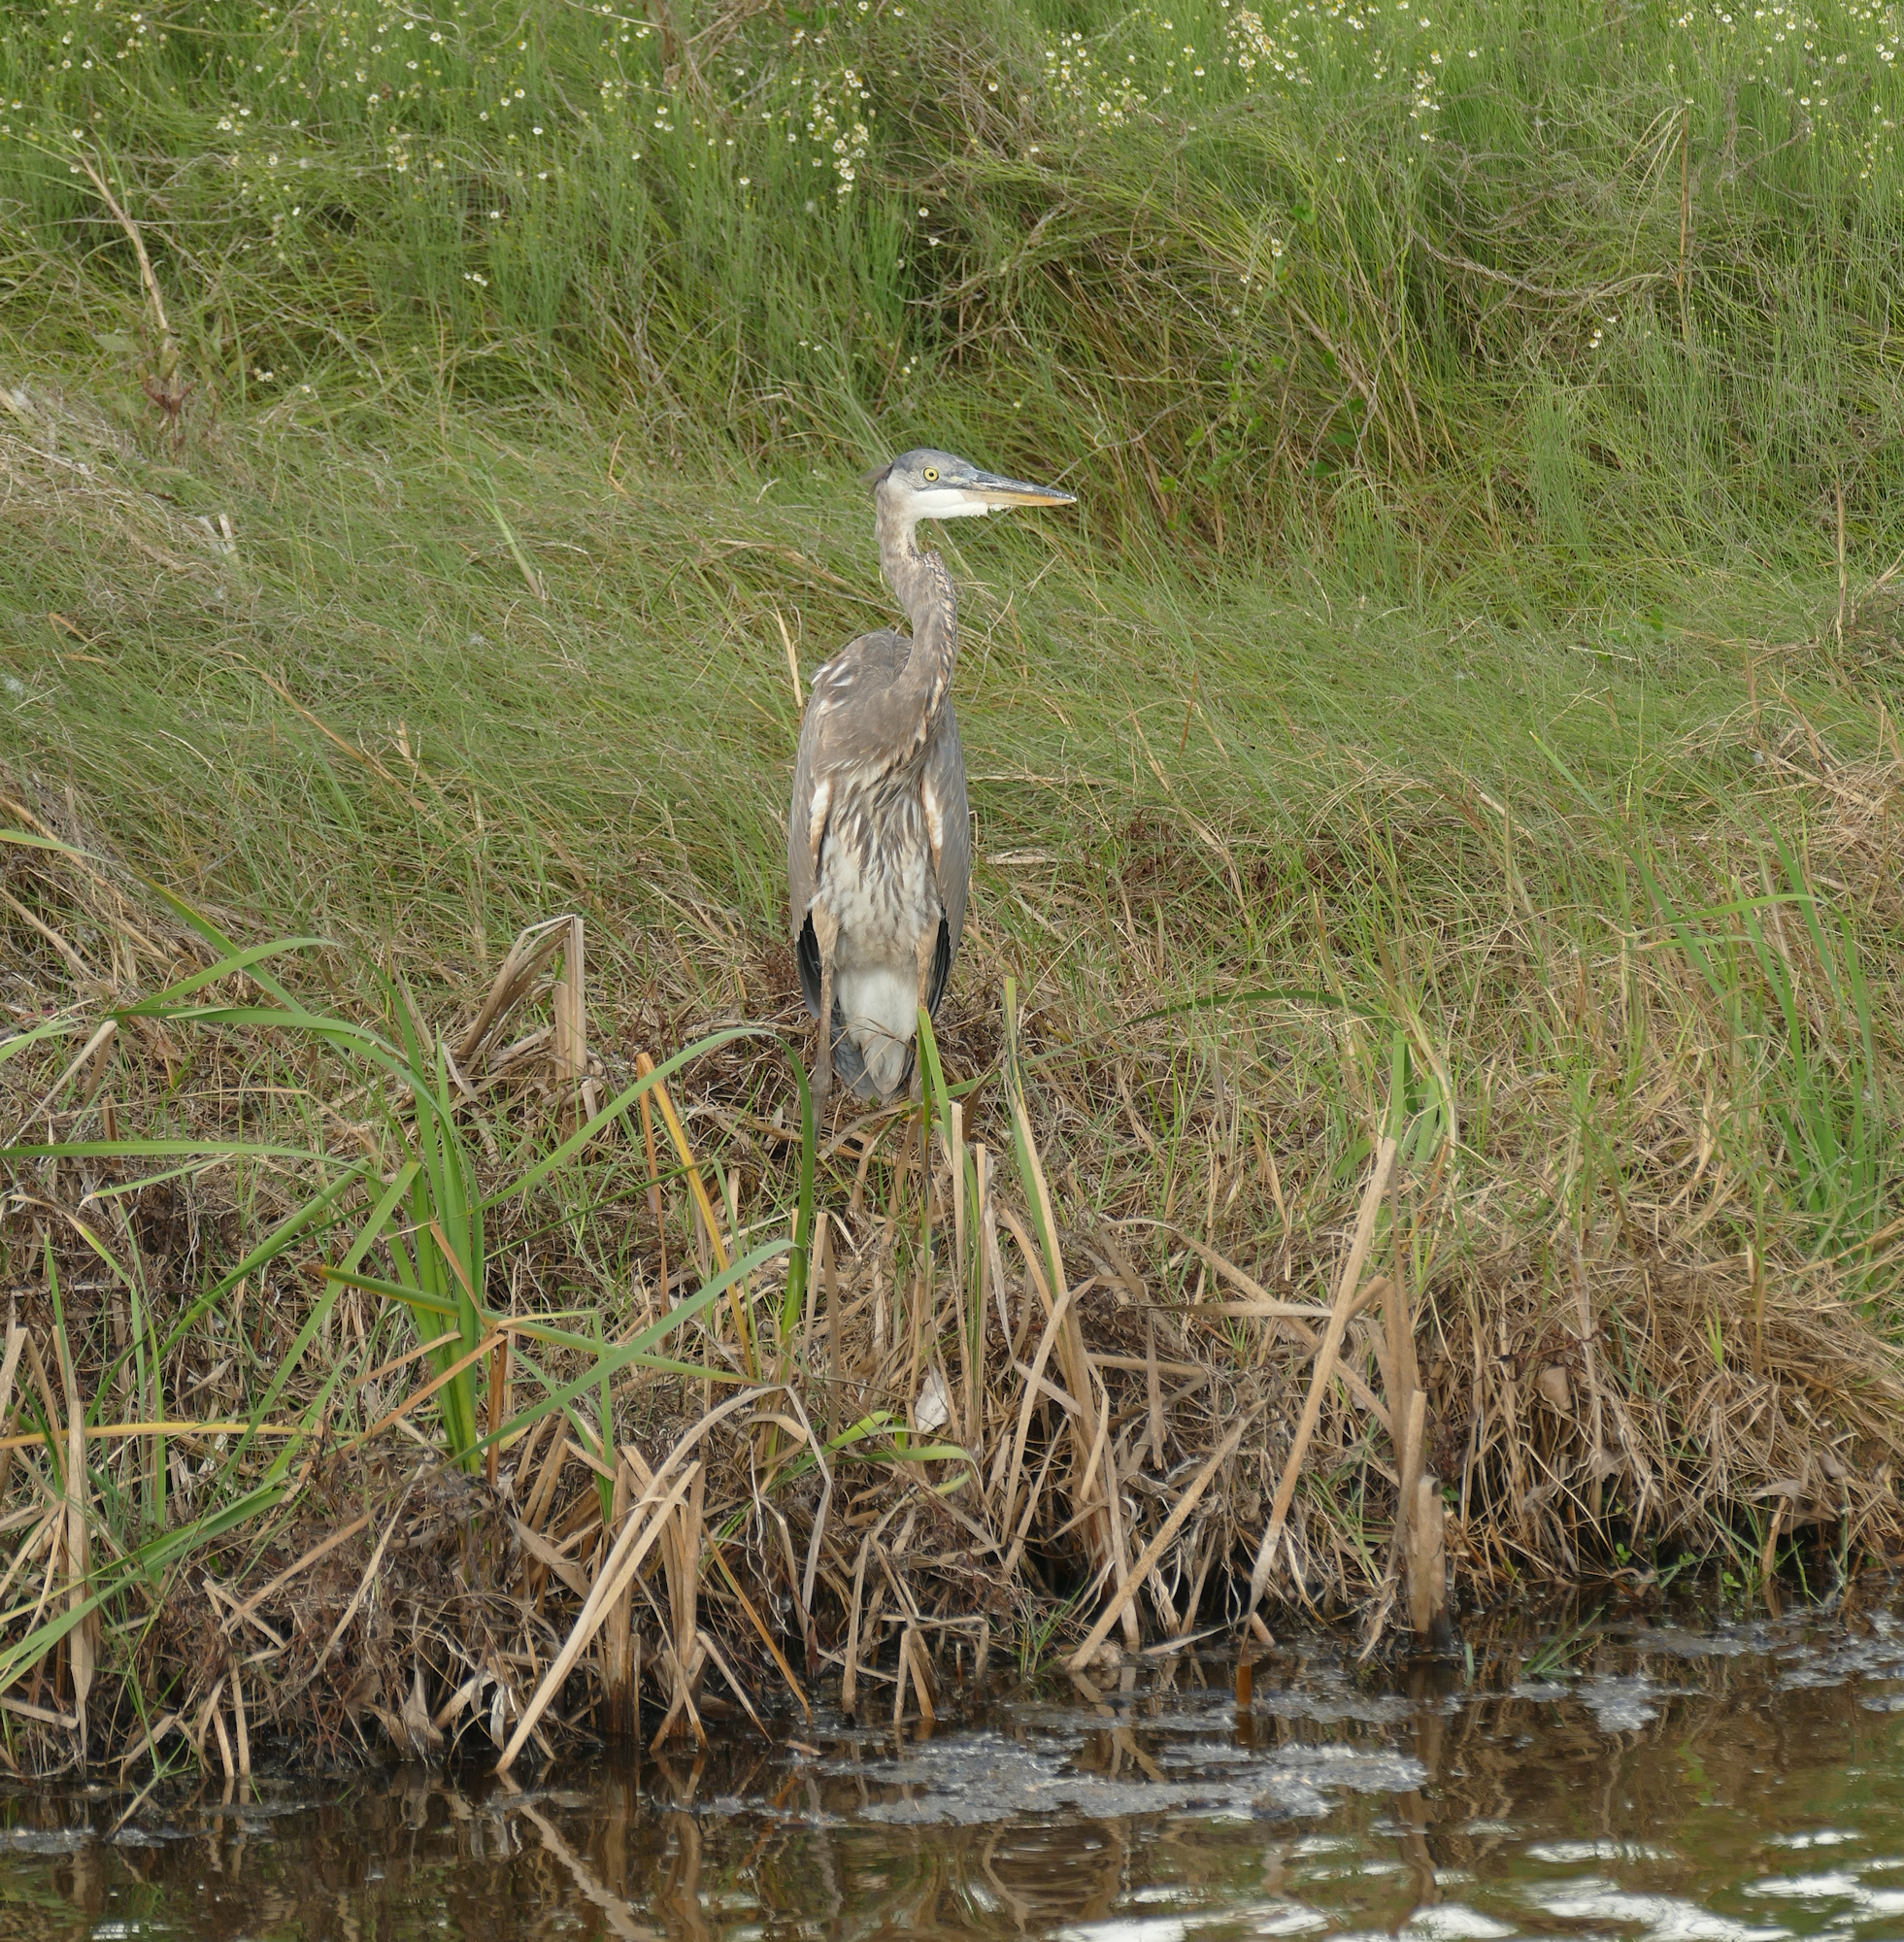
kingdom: Animalia
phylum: Chordata
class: Aves
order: Pelecaniformes
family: Ardeidae
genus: Ardea
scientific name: Ardea herodias
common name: Great blue heron
